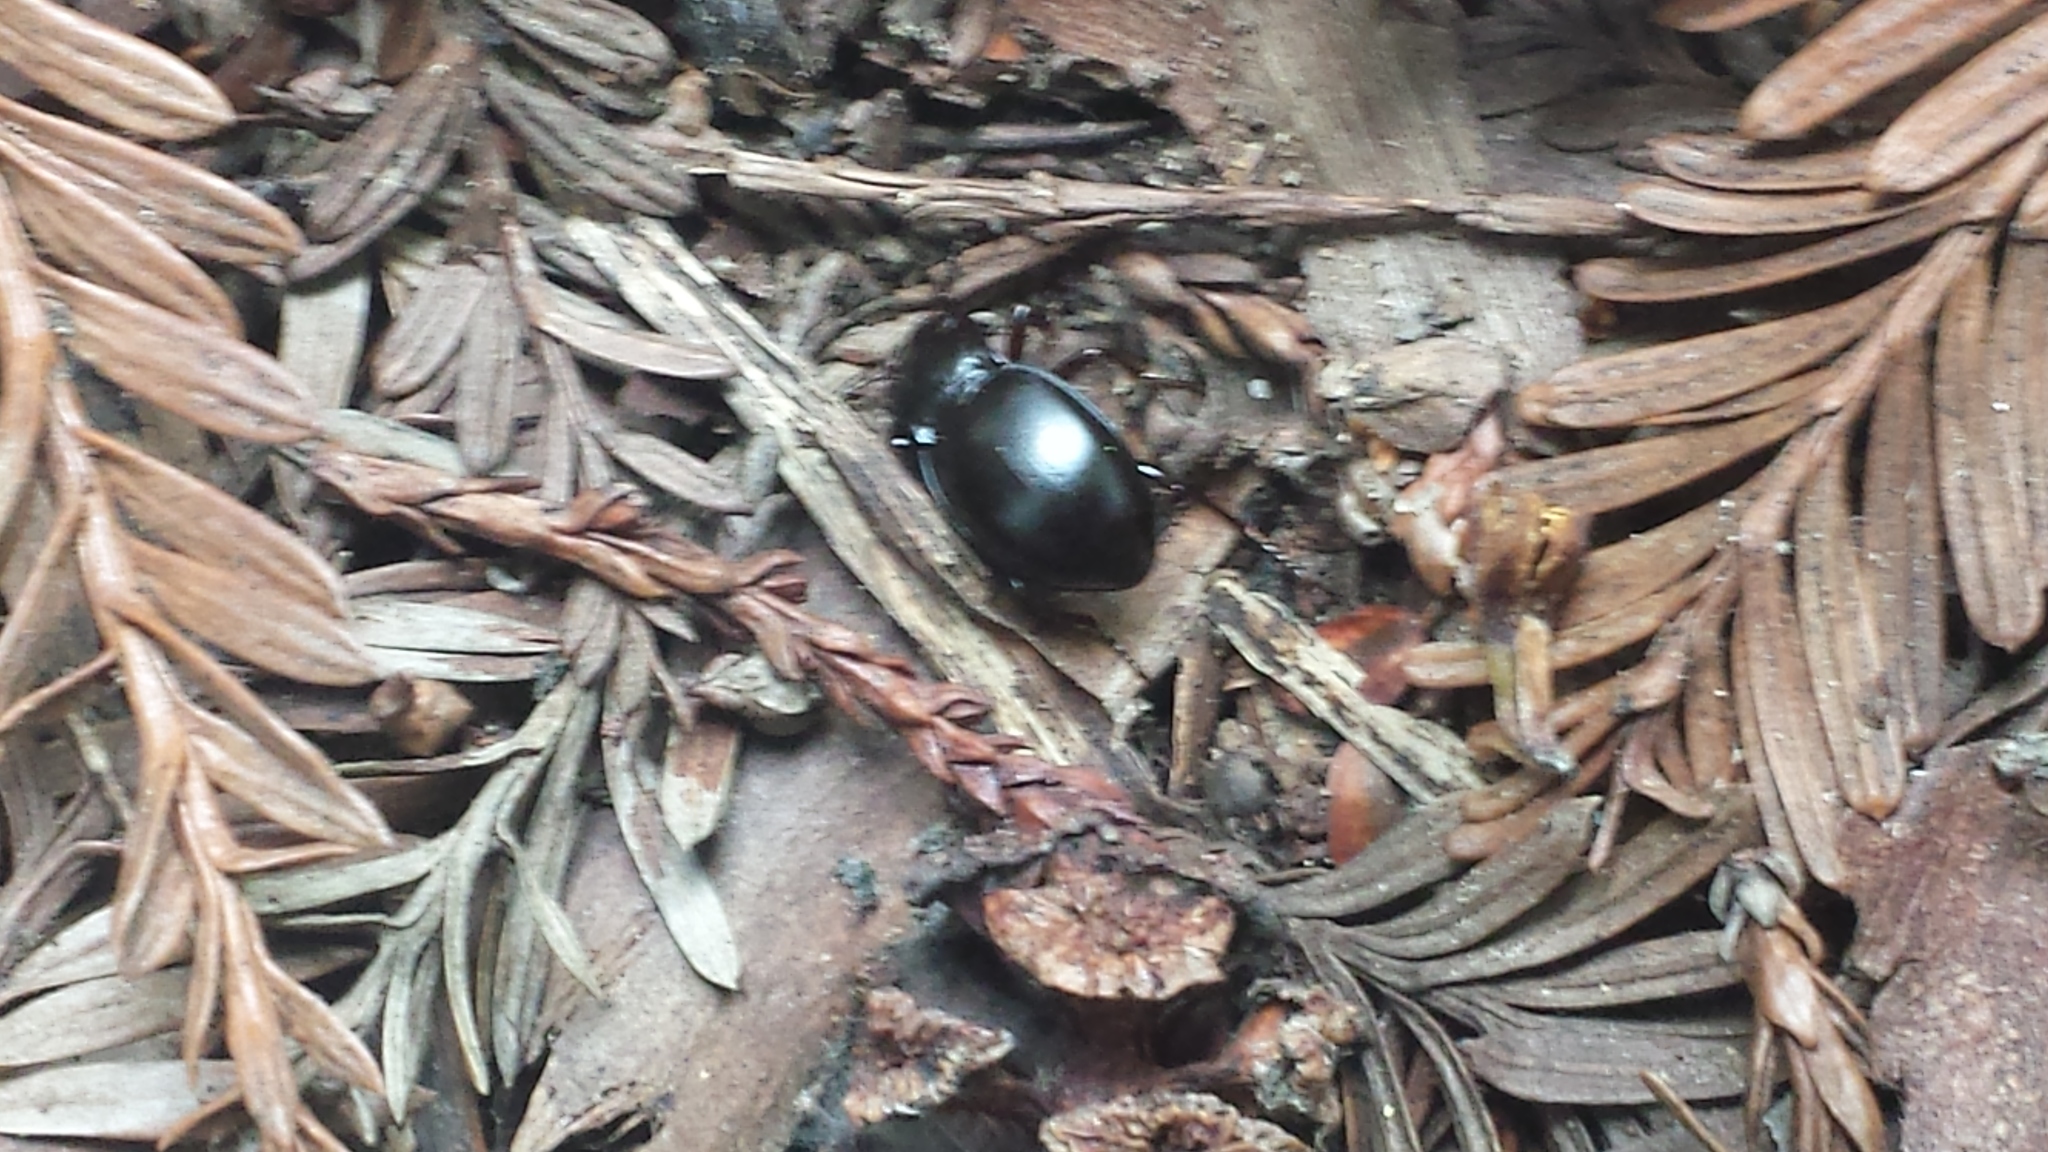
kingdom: Animalia
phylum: Arthropoda
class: Insecta
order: Coleoptera
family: Carabidae
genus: Metrius
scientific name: Metrius contractus
